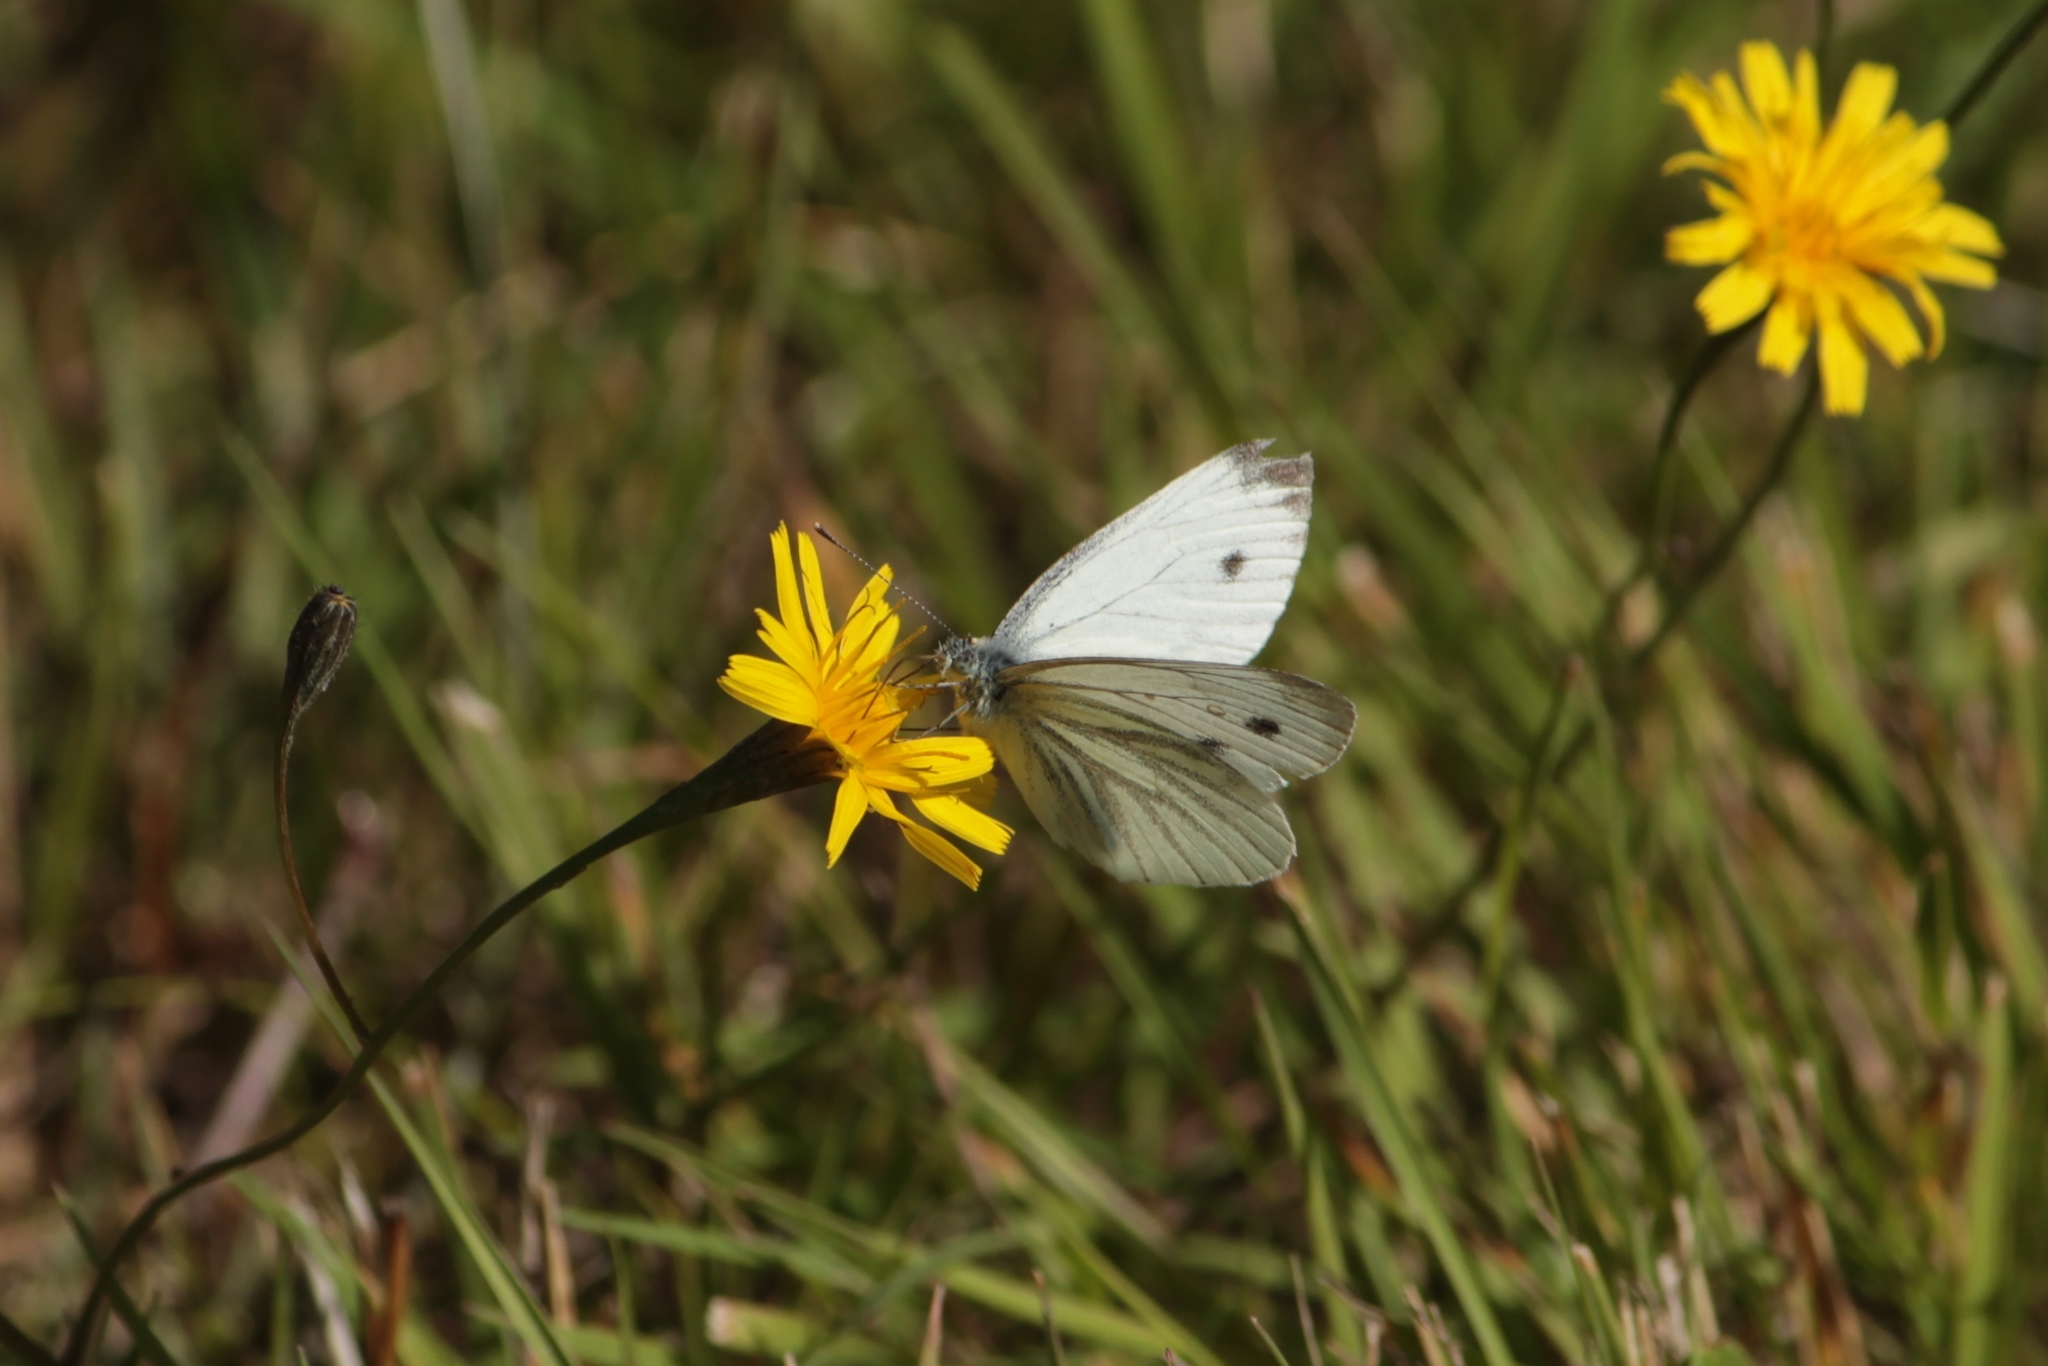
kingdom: Animalia
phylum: Arthropoda
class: Insecta
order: Lepidoptera
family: Pieridae
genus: Pieris
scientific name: Pieris napi
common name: Green-veined white
